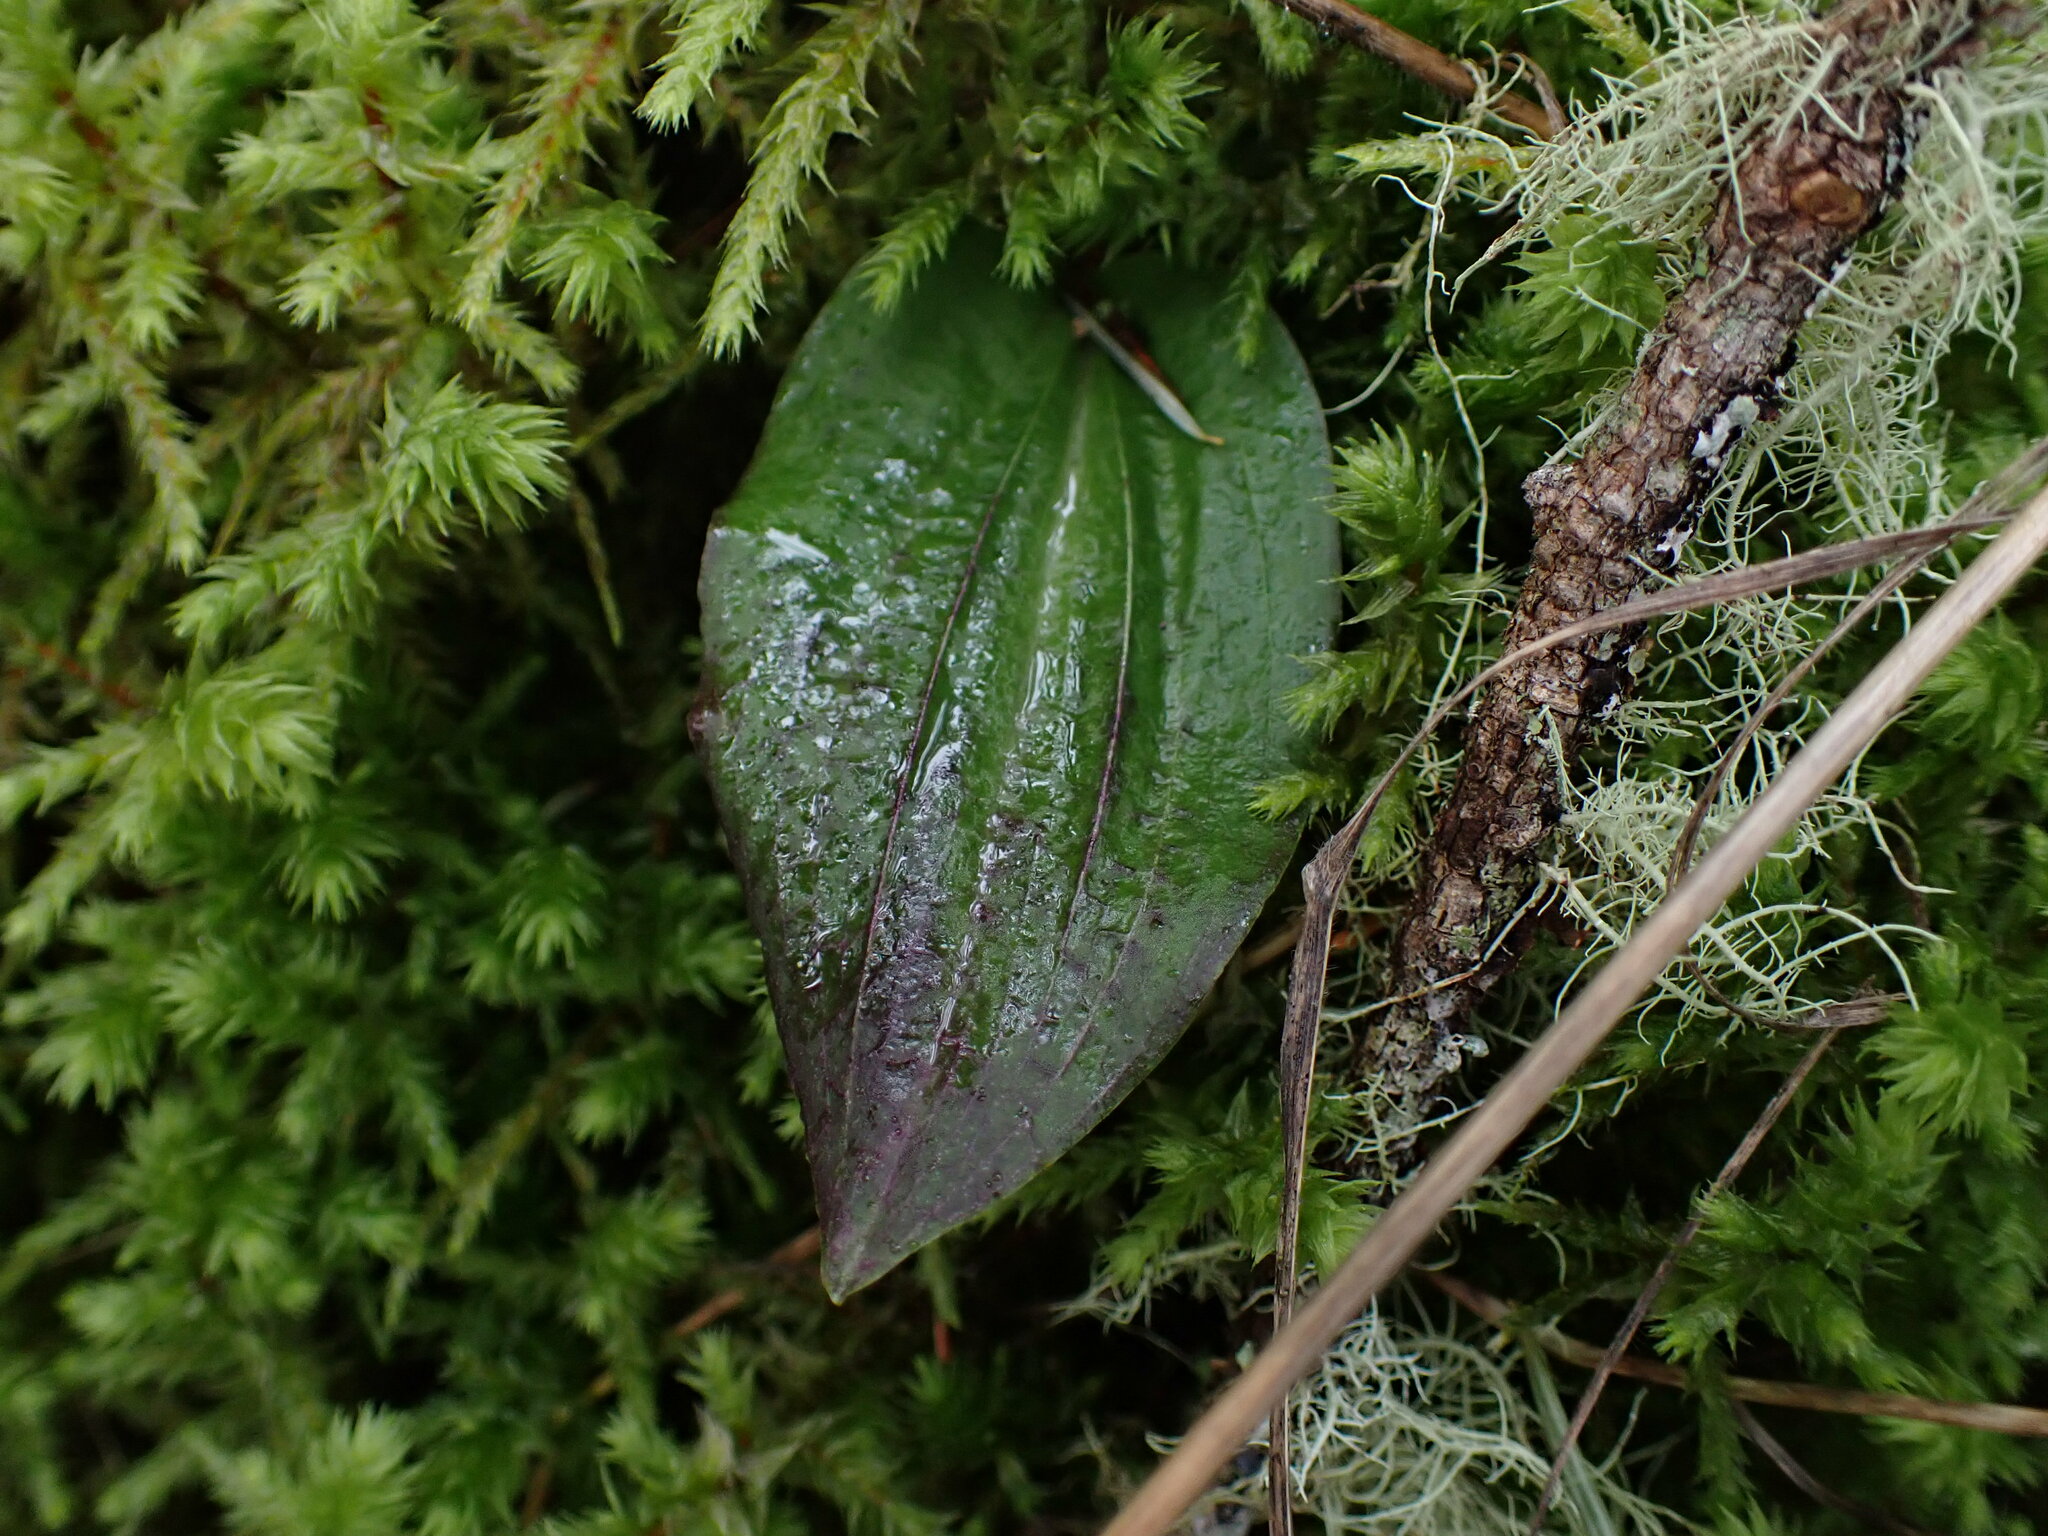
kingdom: Plantae
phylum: Tracheophyta
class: Liliopsida
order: Asparagales
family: Orchidaceae
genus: Calypso
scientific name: Calypso bulbosa
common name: Calypso
